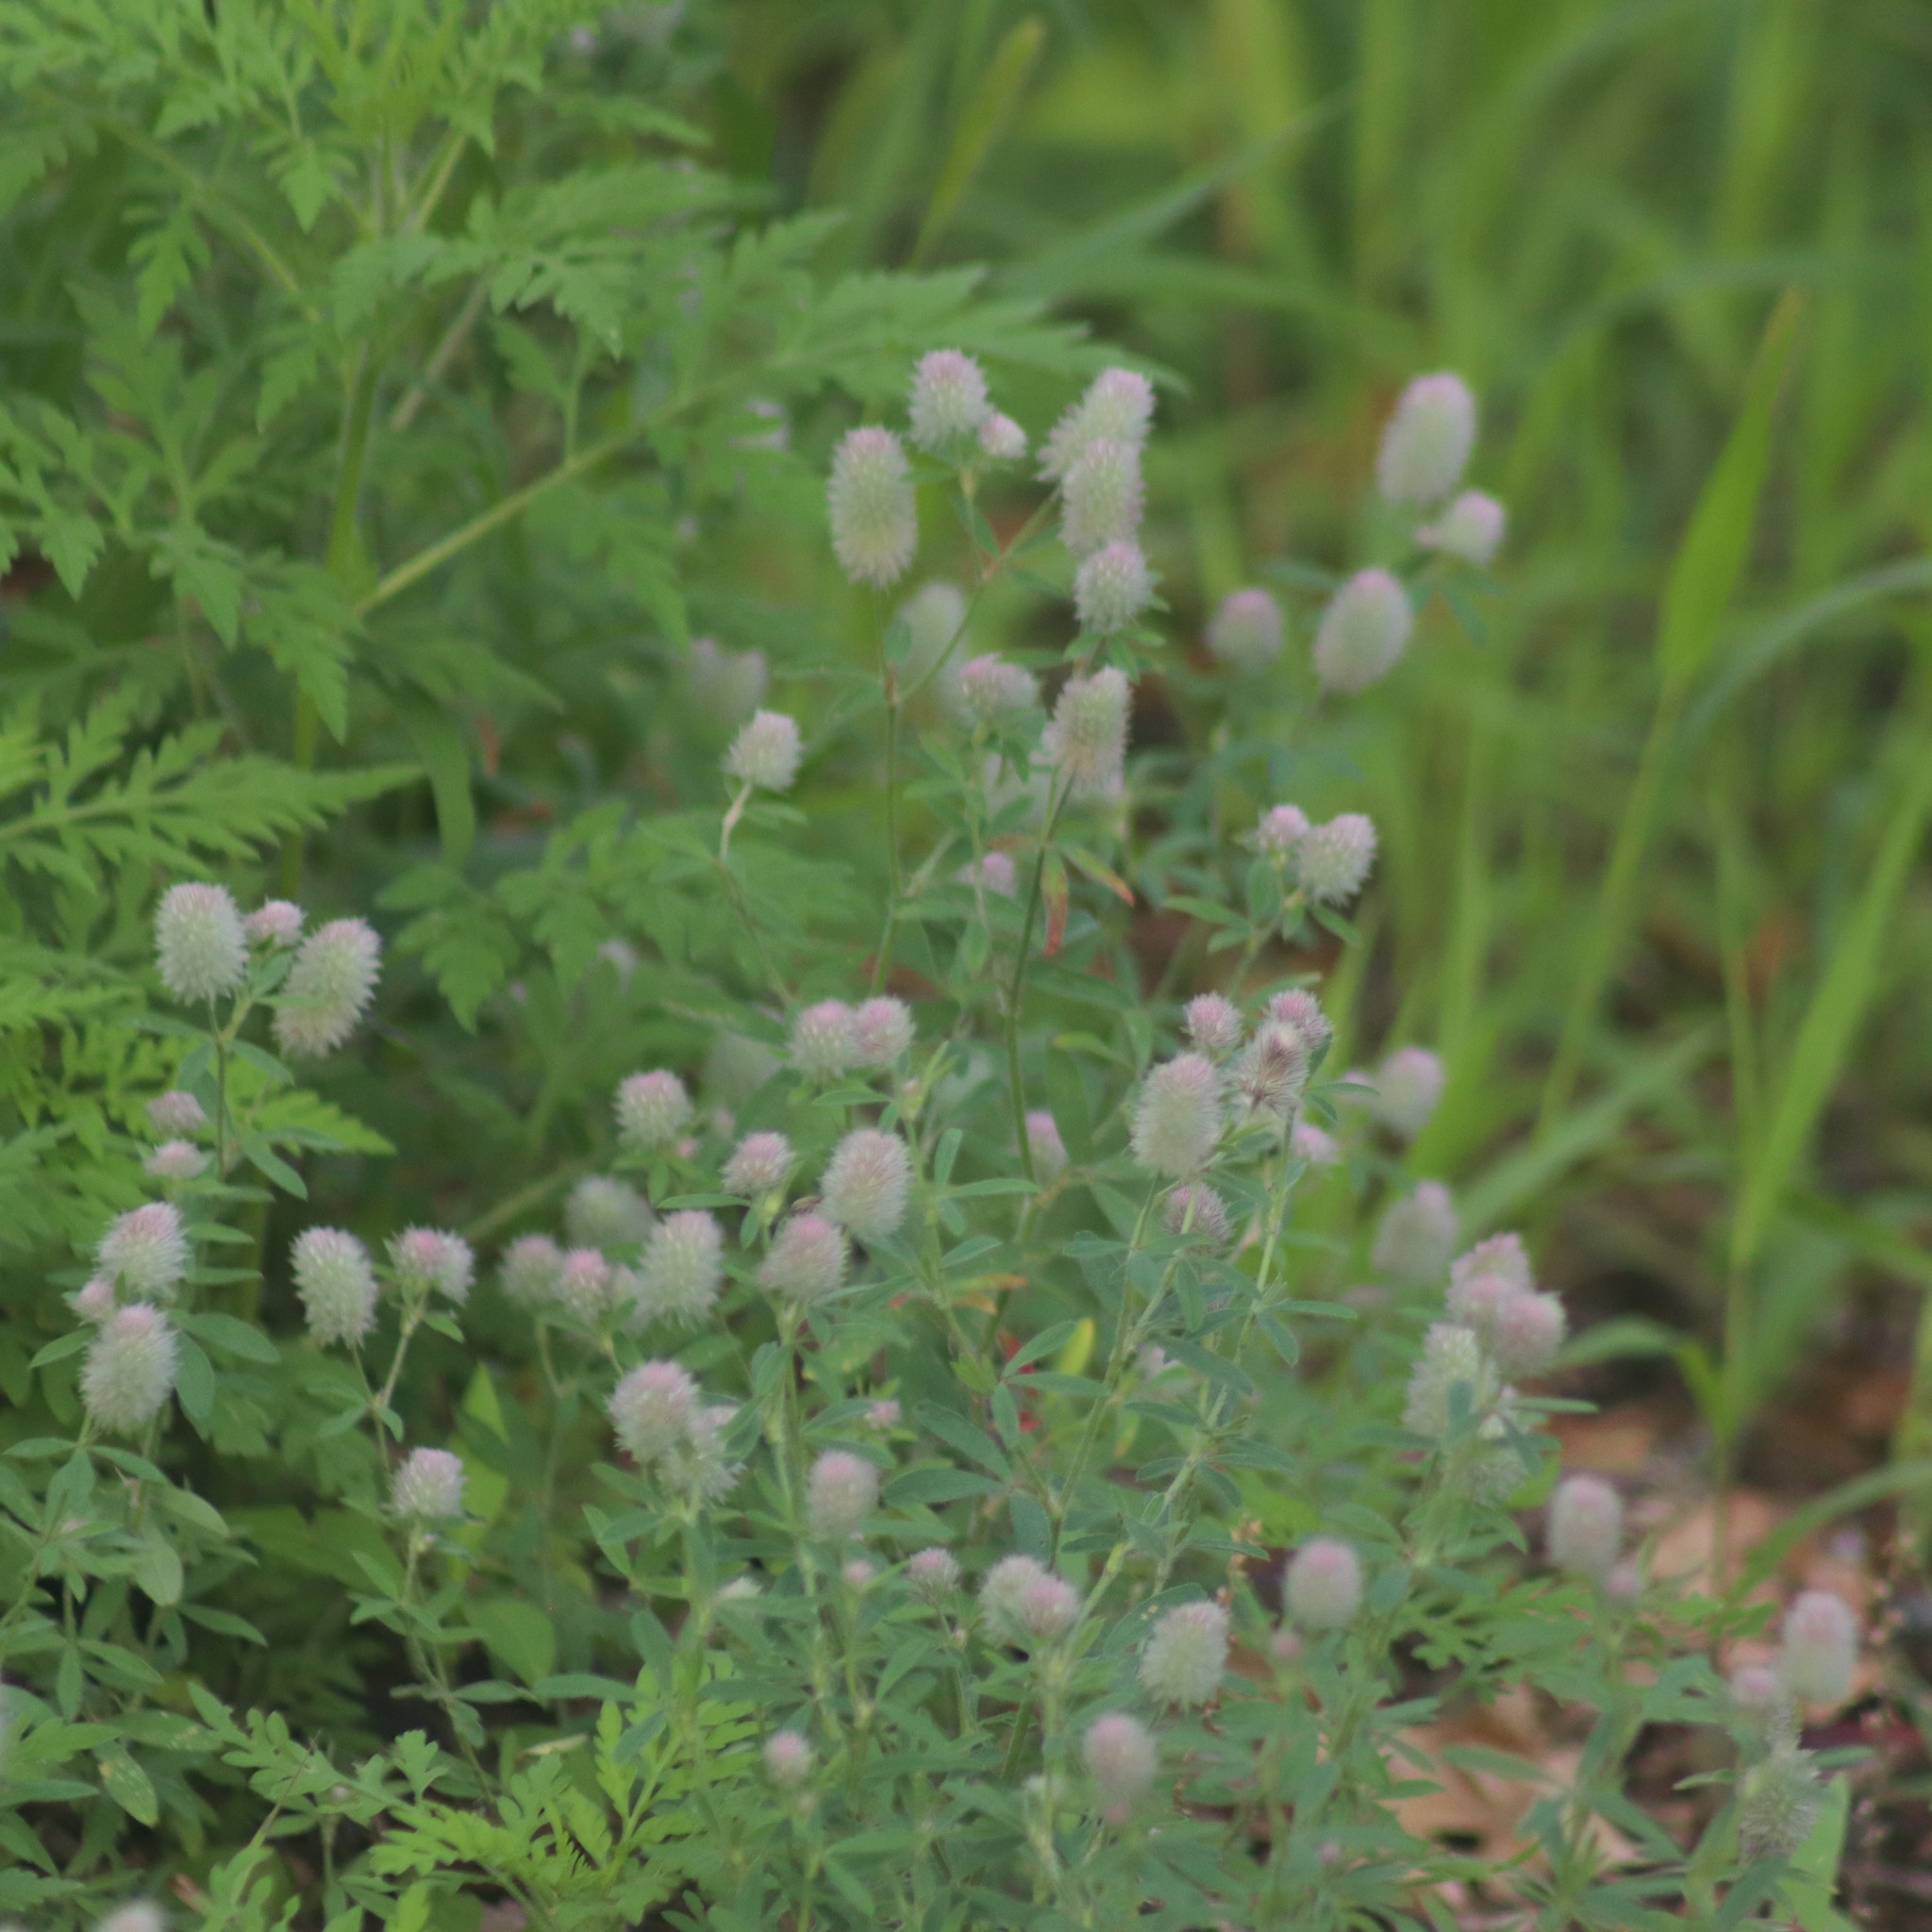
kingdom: Plantae
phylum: Tracheophyta
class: Magnoliopsida
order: Fabales
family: Fabaceae
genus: Trifolium
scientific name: Trifolium arvense
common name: Hare's-foot clover
